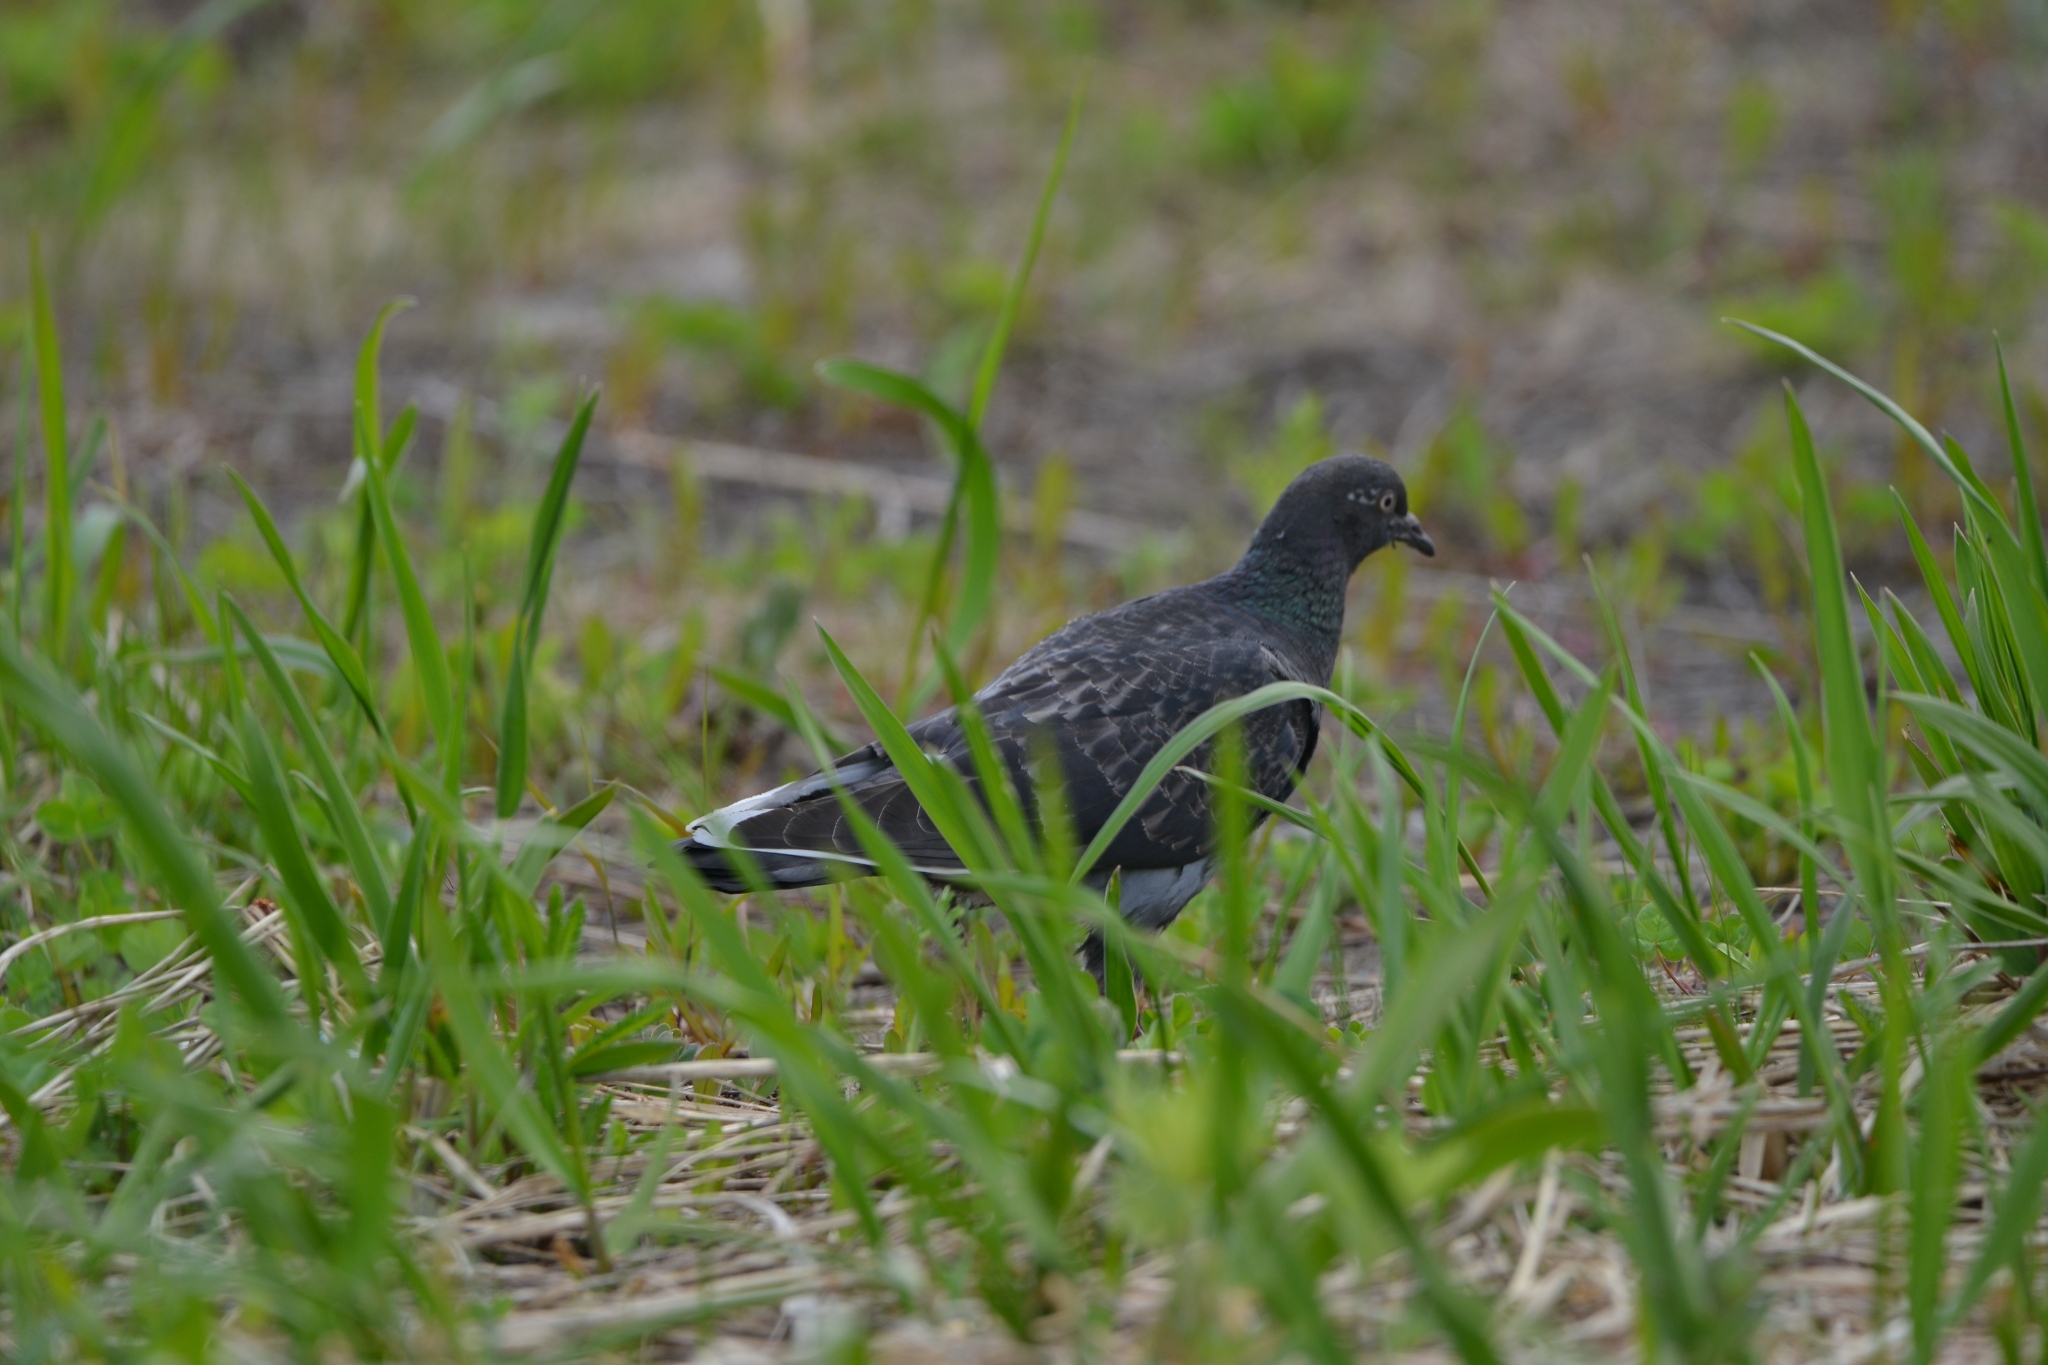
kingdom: Animalia
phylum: Chordata
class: Aves
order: Columbiformes
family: Columbidae
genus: Columba
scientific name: Columba livia
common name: Rock pigeon
